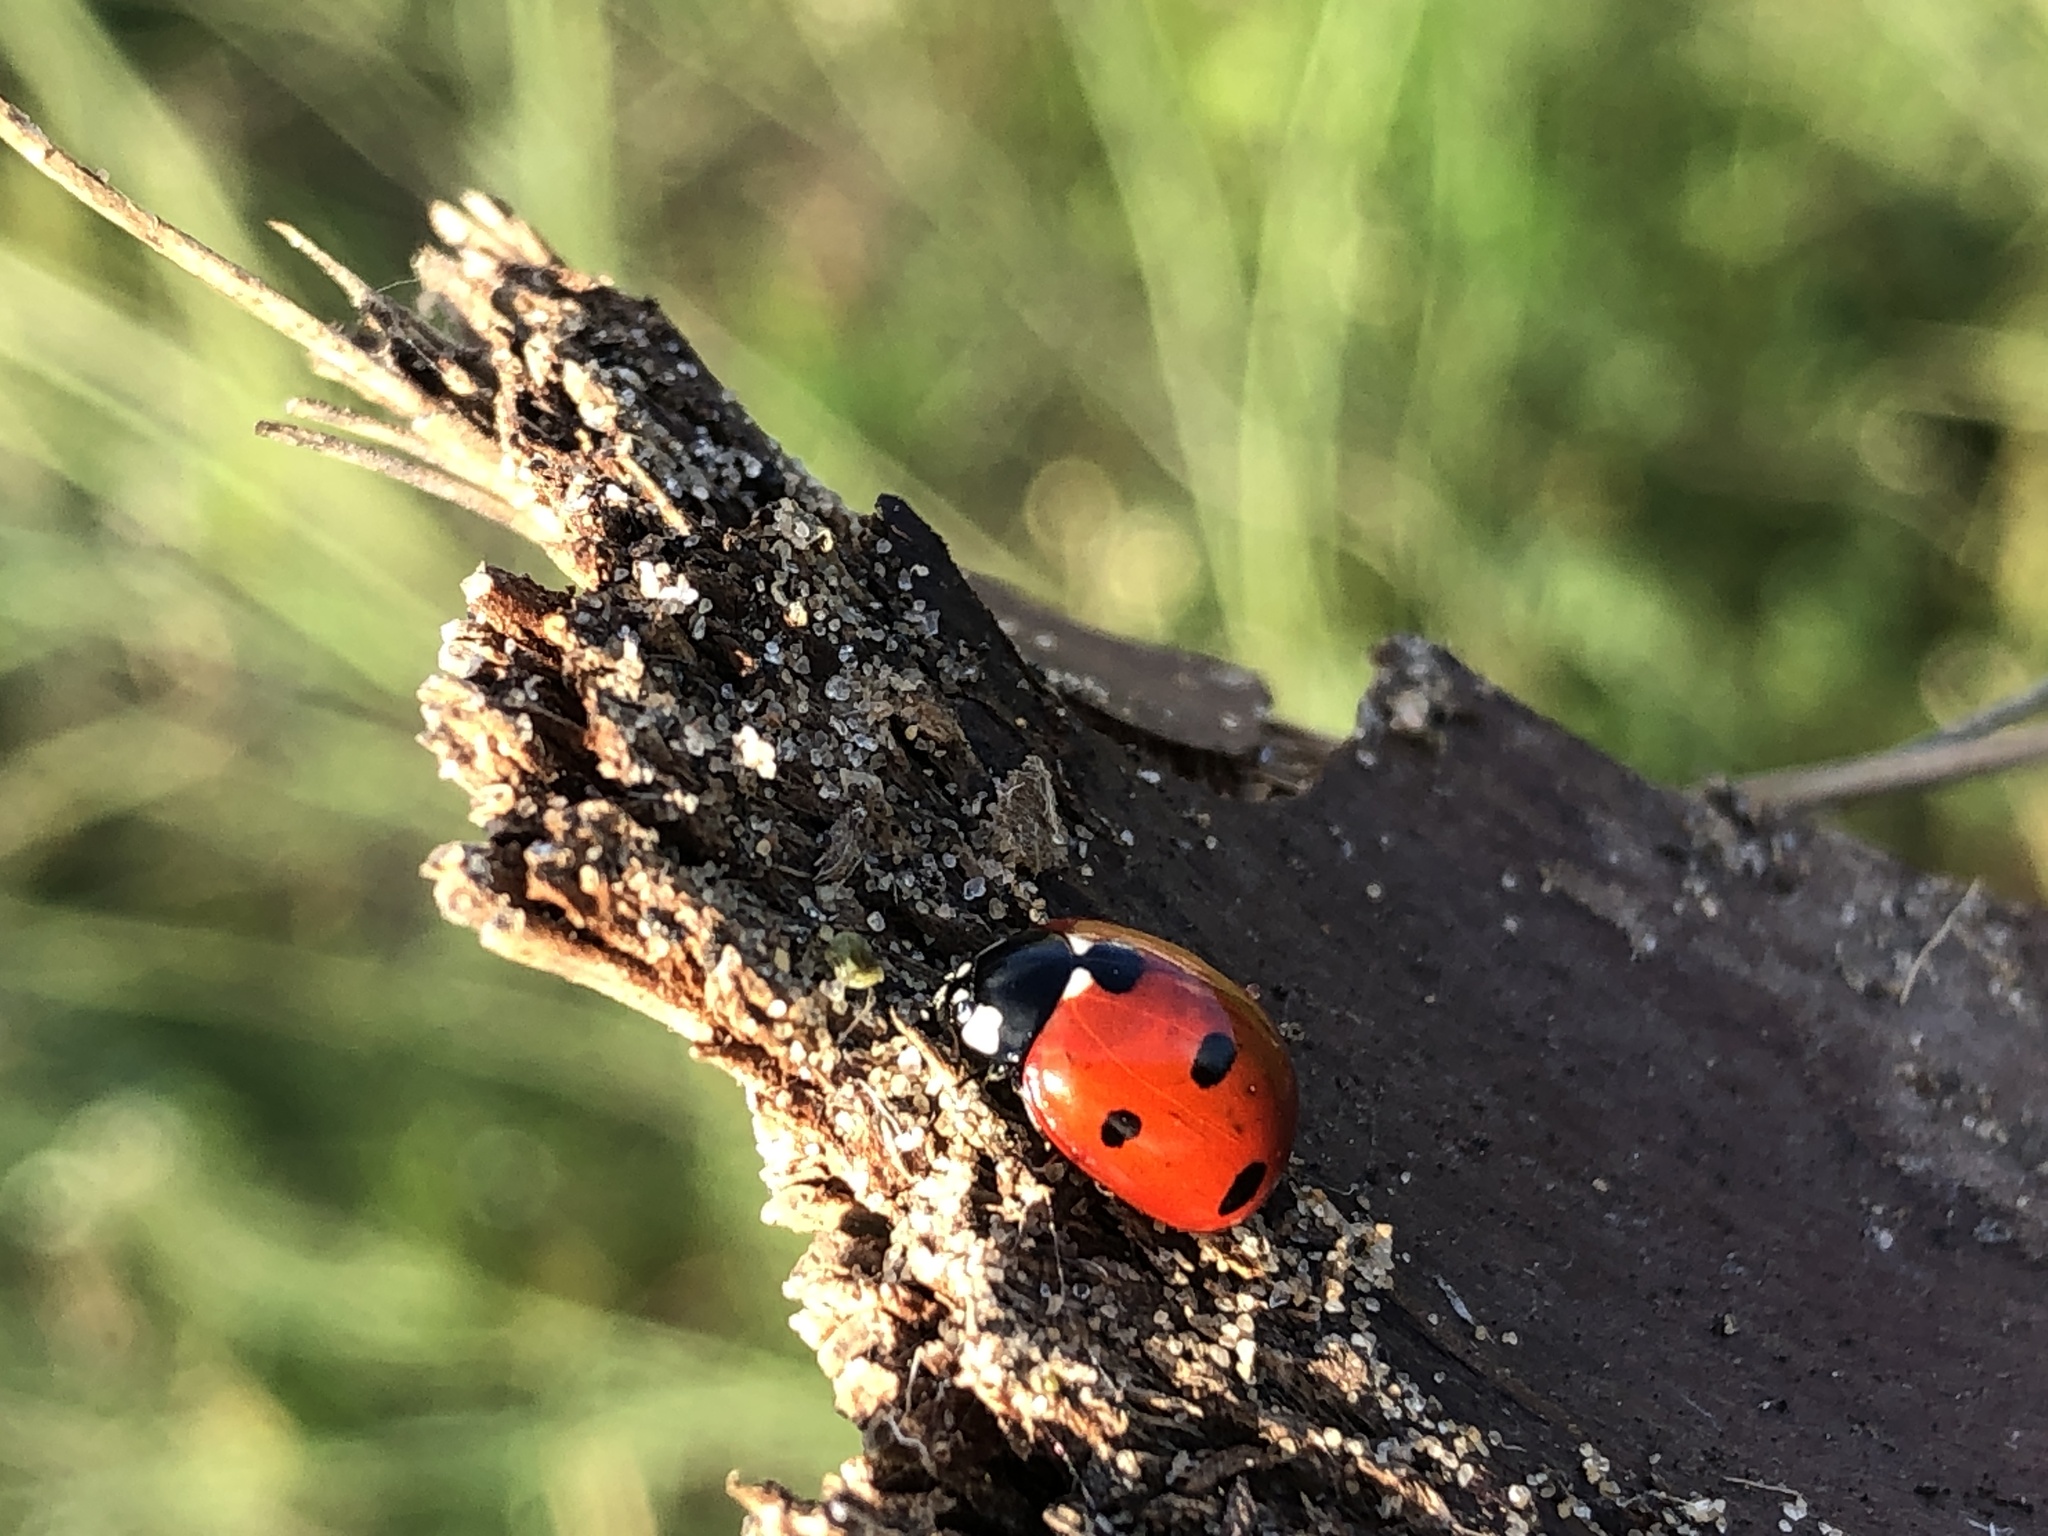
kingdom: Animalia
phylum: Arthropoda
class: Insecta
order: Coleoptera
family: Coccinellidae
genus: Coccinella
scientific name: Coccinella septempunctata
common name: Sevenspotted lady beetle
